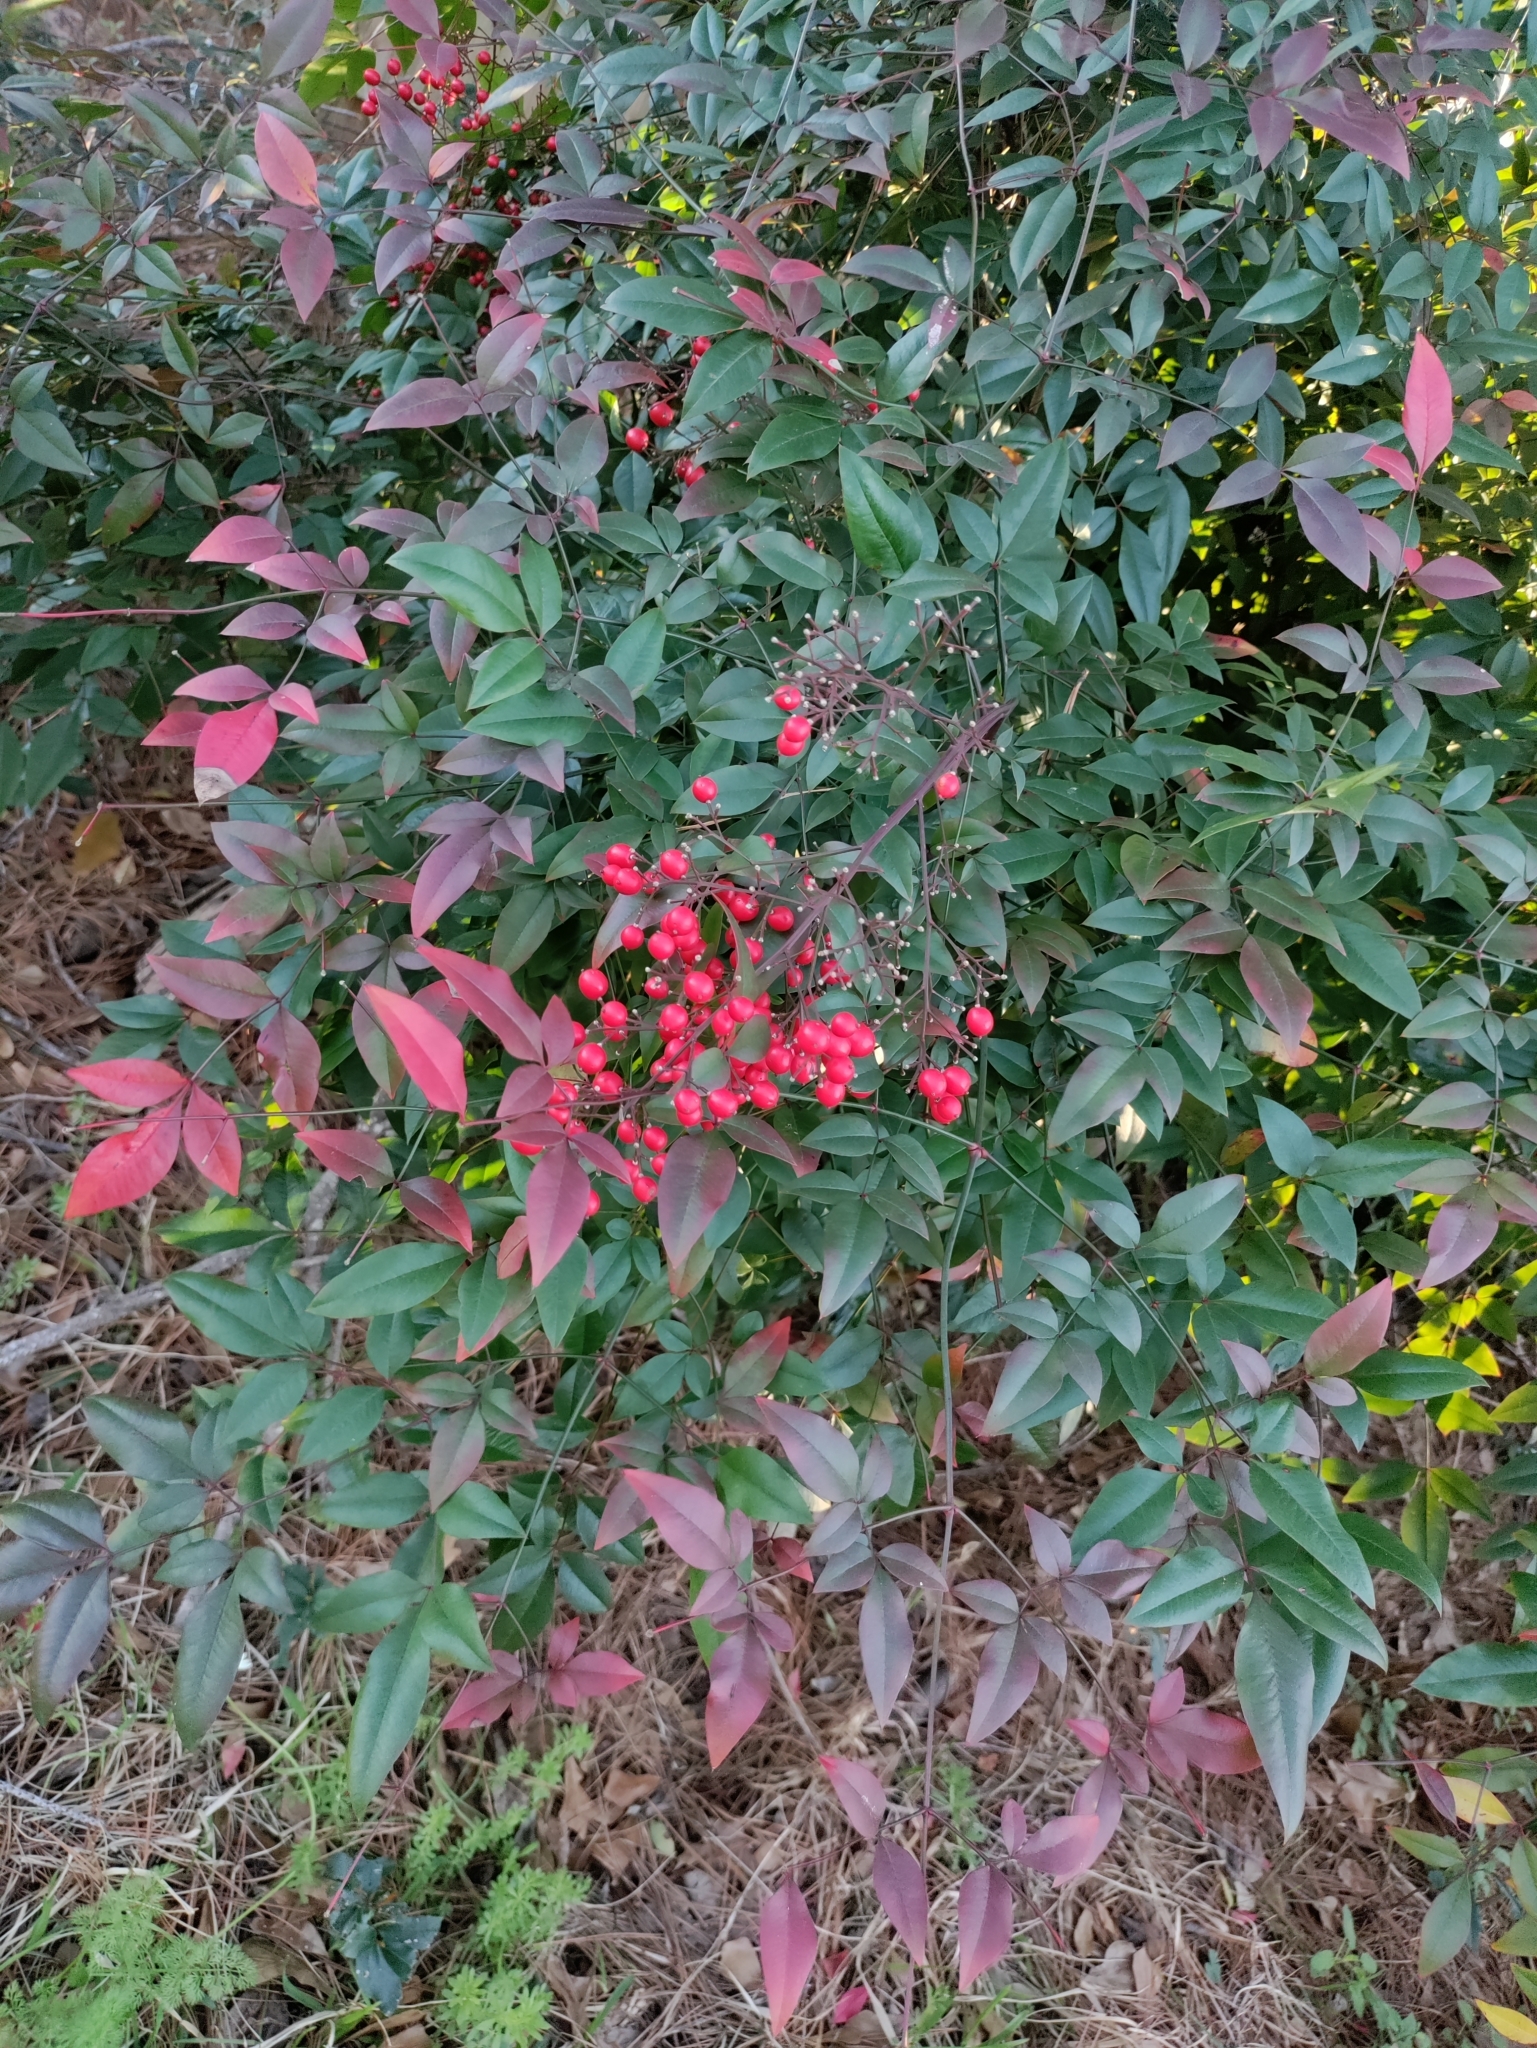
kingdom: Plantae
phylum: Tracheophyta
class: Magnoliopsida
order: Ranunculales
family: Berberidaceae
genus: Nandina
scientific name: Nandina domestica
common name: Sacred bamboo
